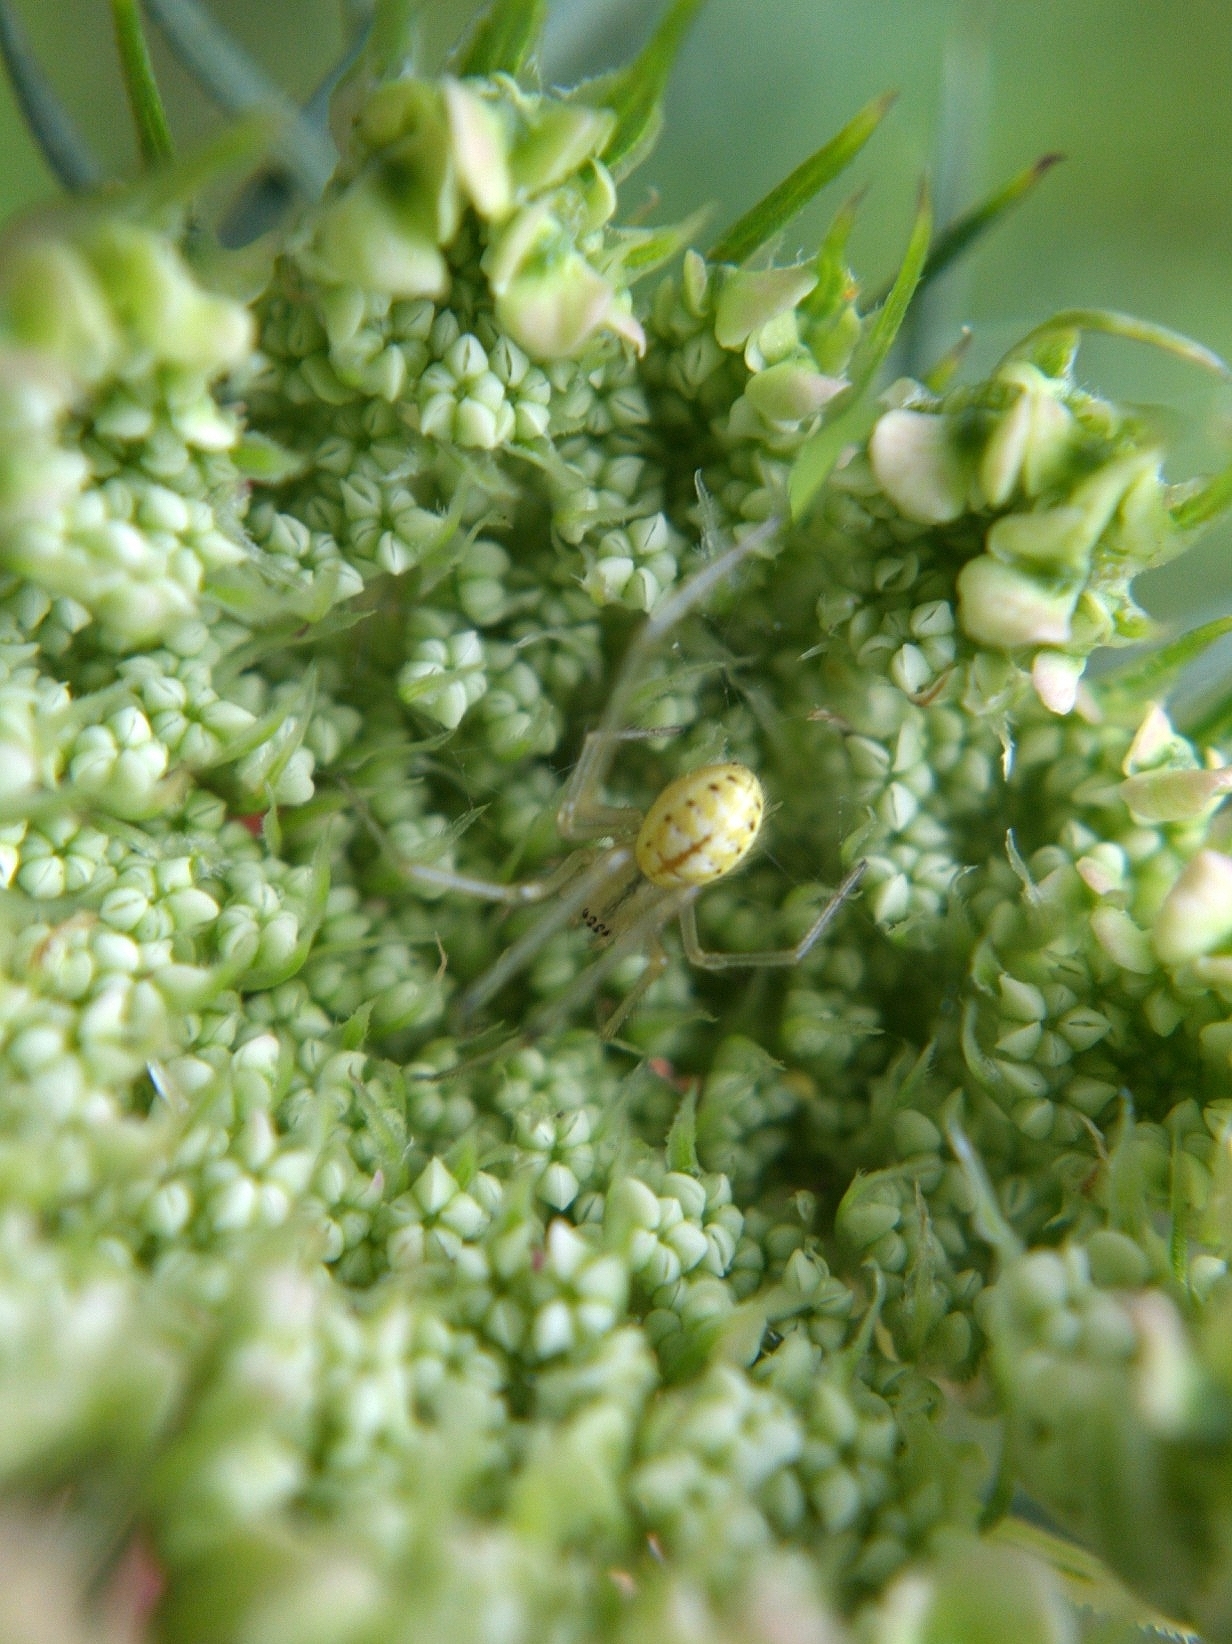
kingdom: Animalia
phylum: Arthropoda
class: Arachnida
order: Araneae
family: Theridiidae
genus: Enoplognatha
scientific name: Enoplognatha ovata
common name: Common candy-striped spider
